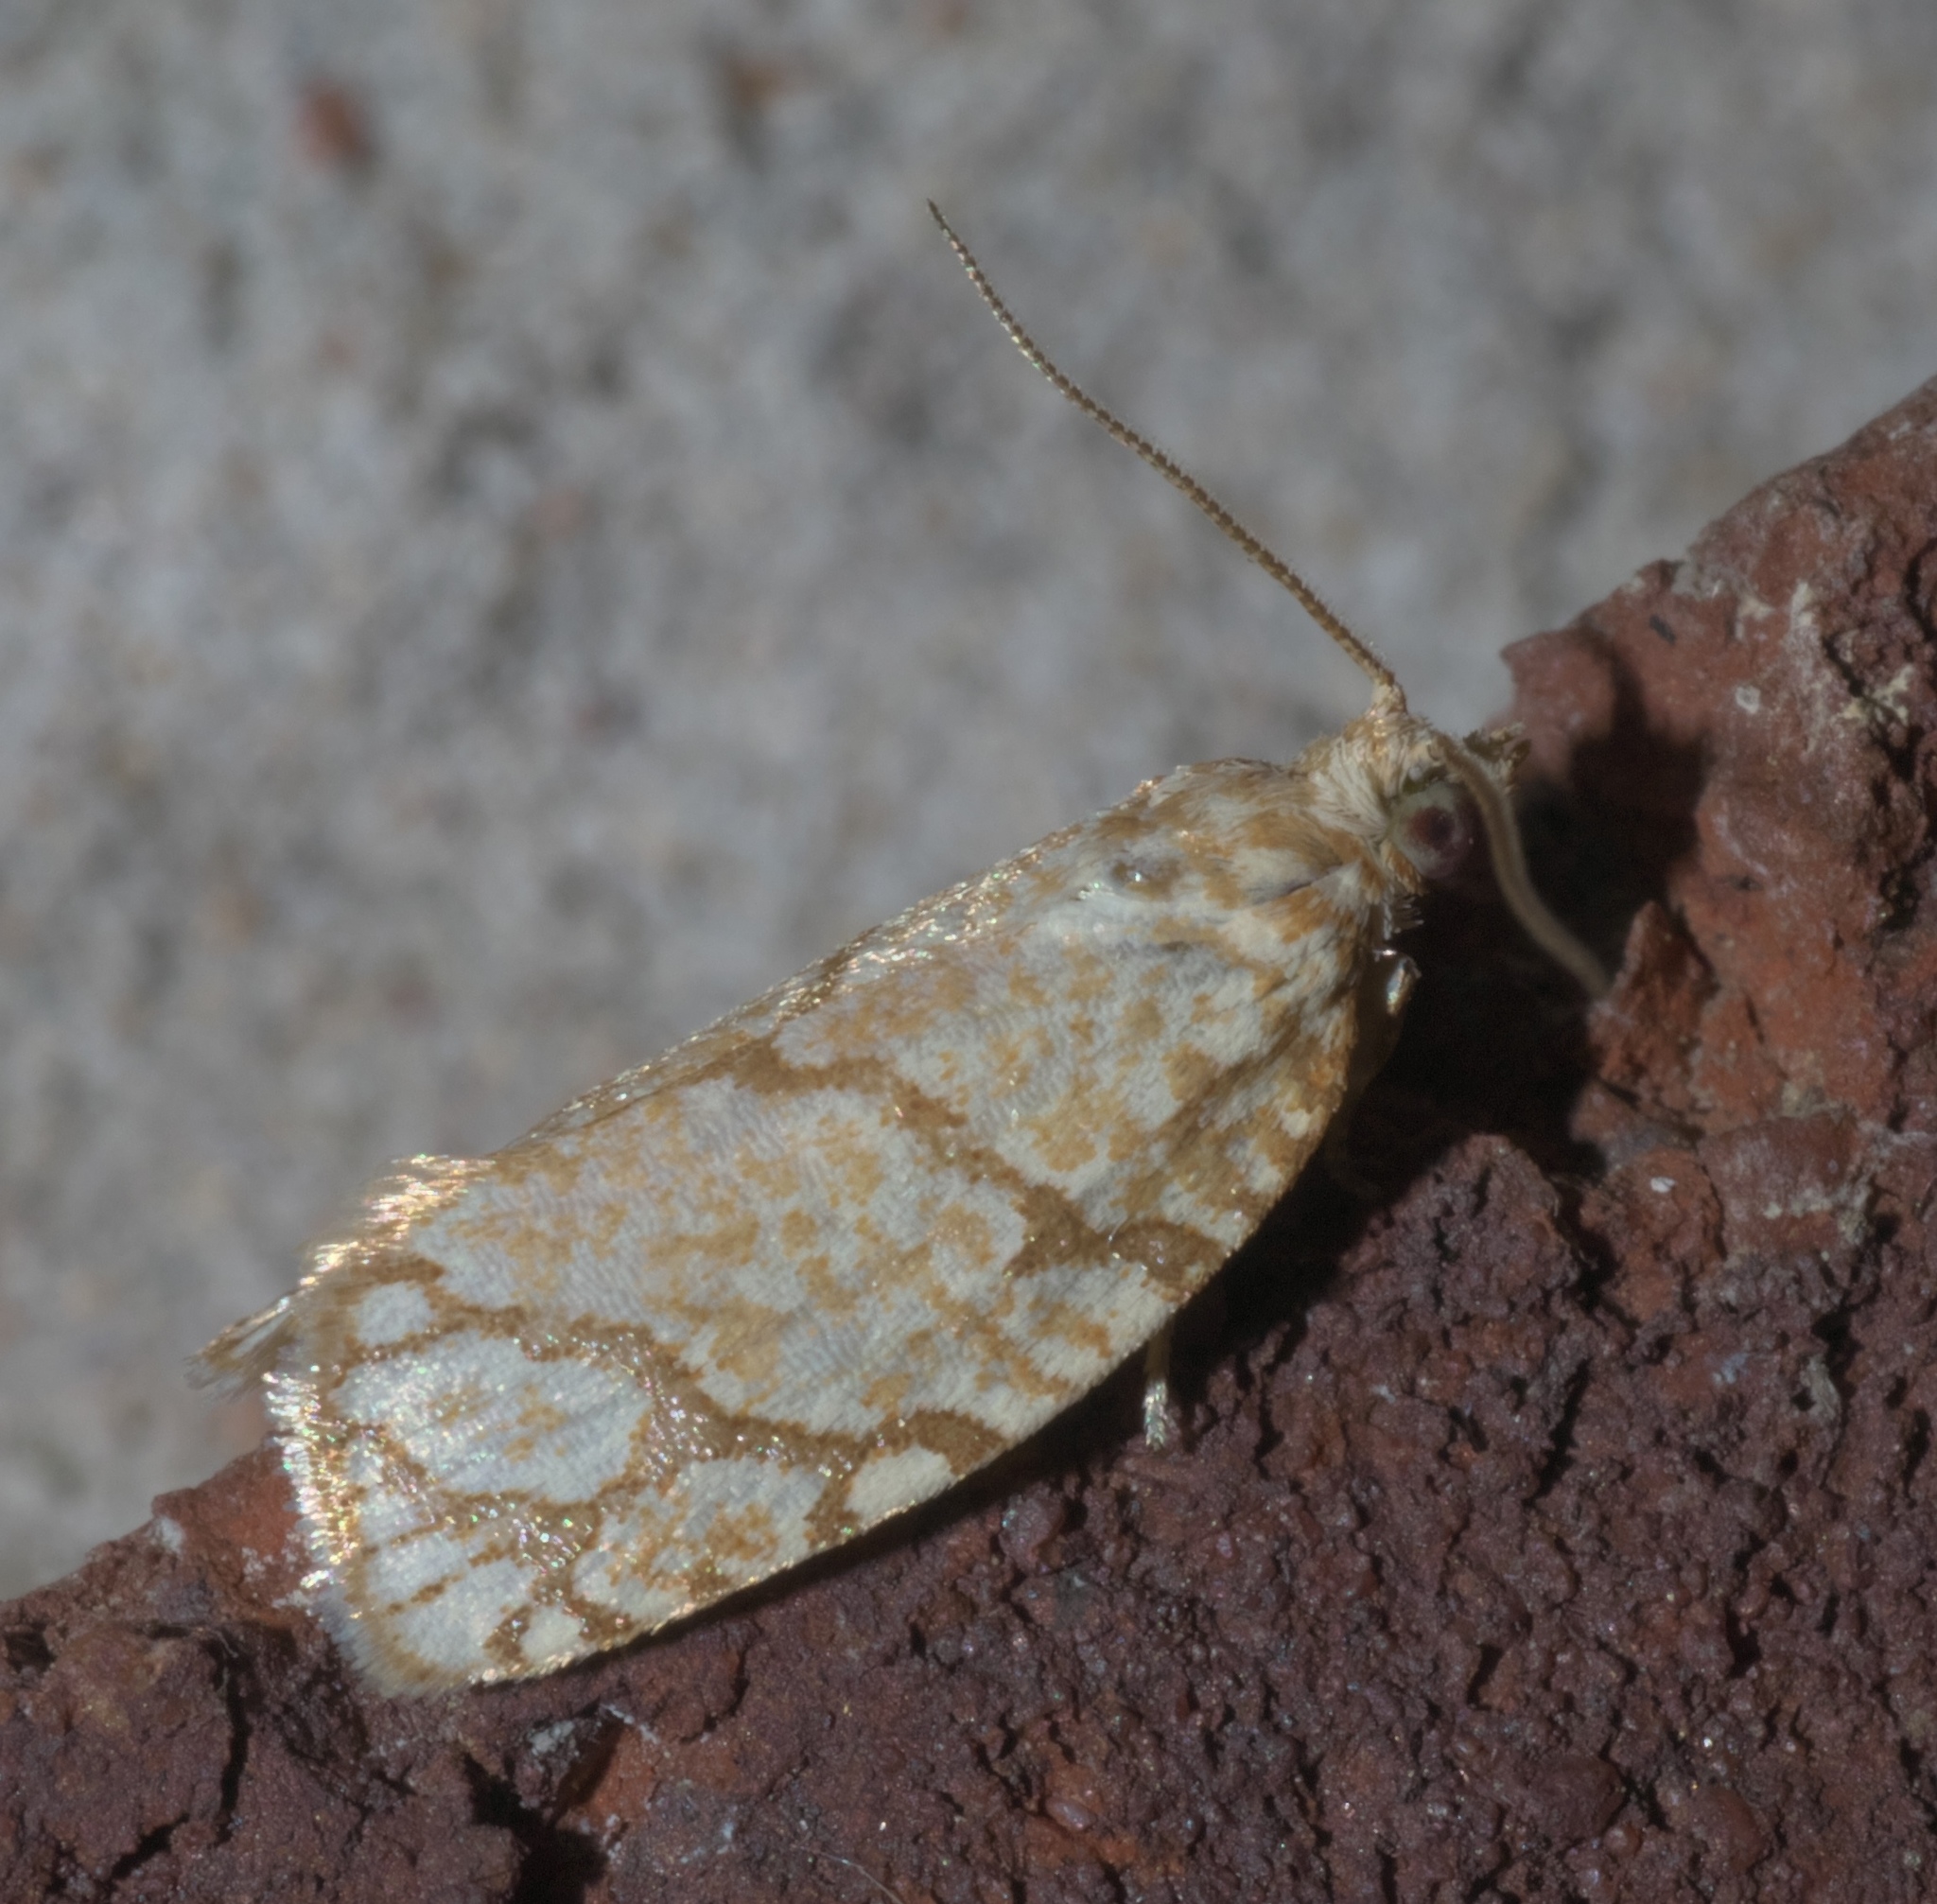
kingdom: Animalia
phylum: Arthropoda
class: Insecta
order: Lepidoptera
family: Tortricidae
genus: Argyrotaenia
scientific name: Argyrotaenia quercifoliana
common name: Yellow-winged oak leafroller moth
